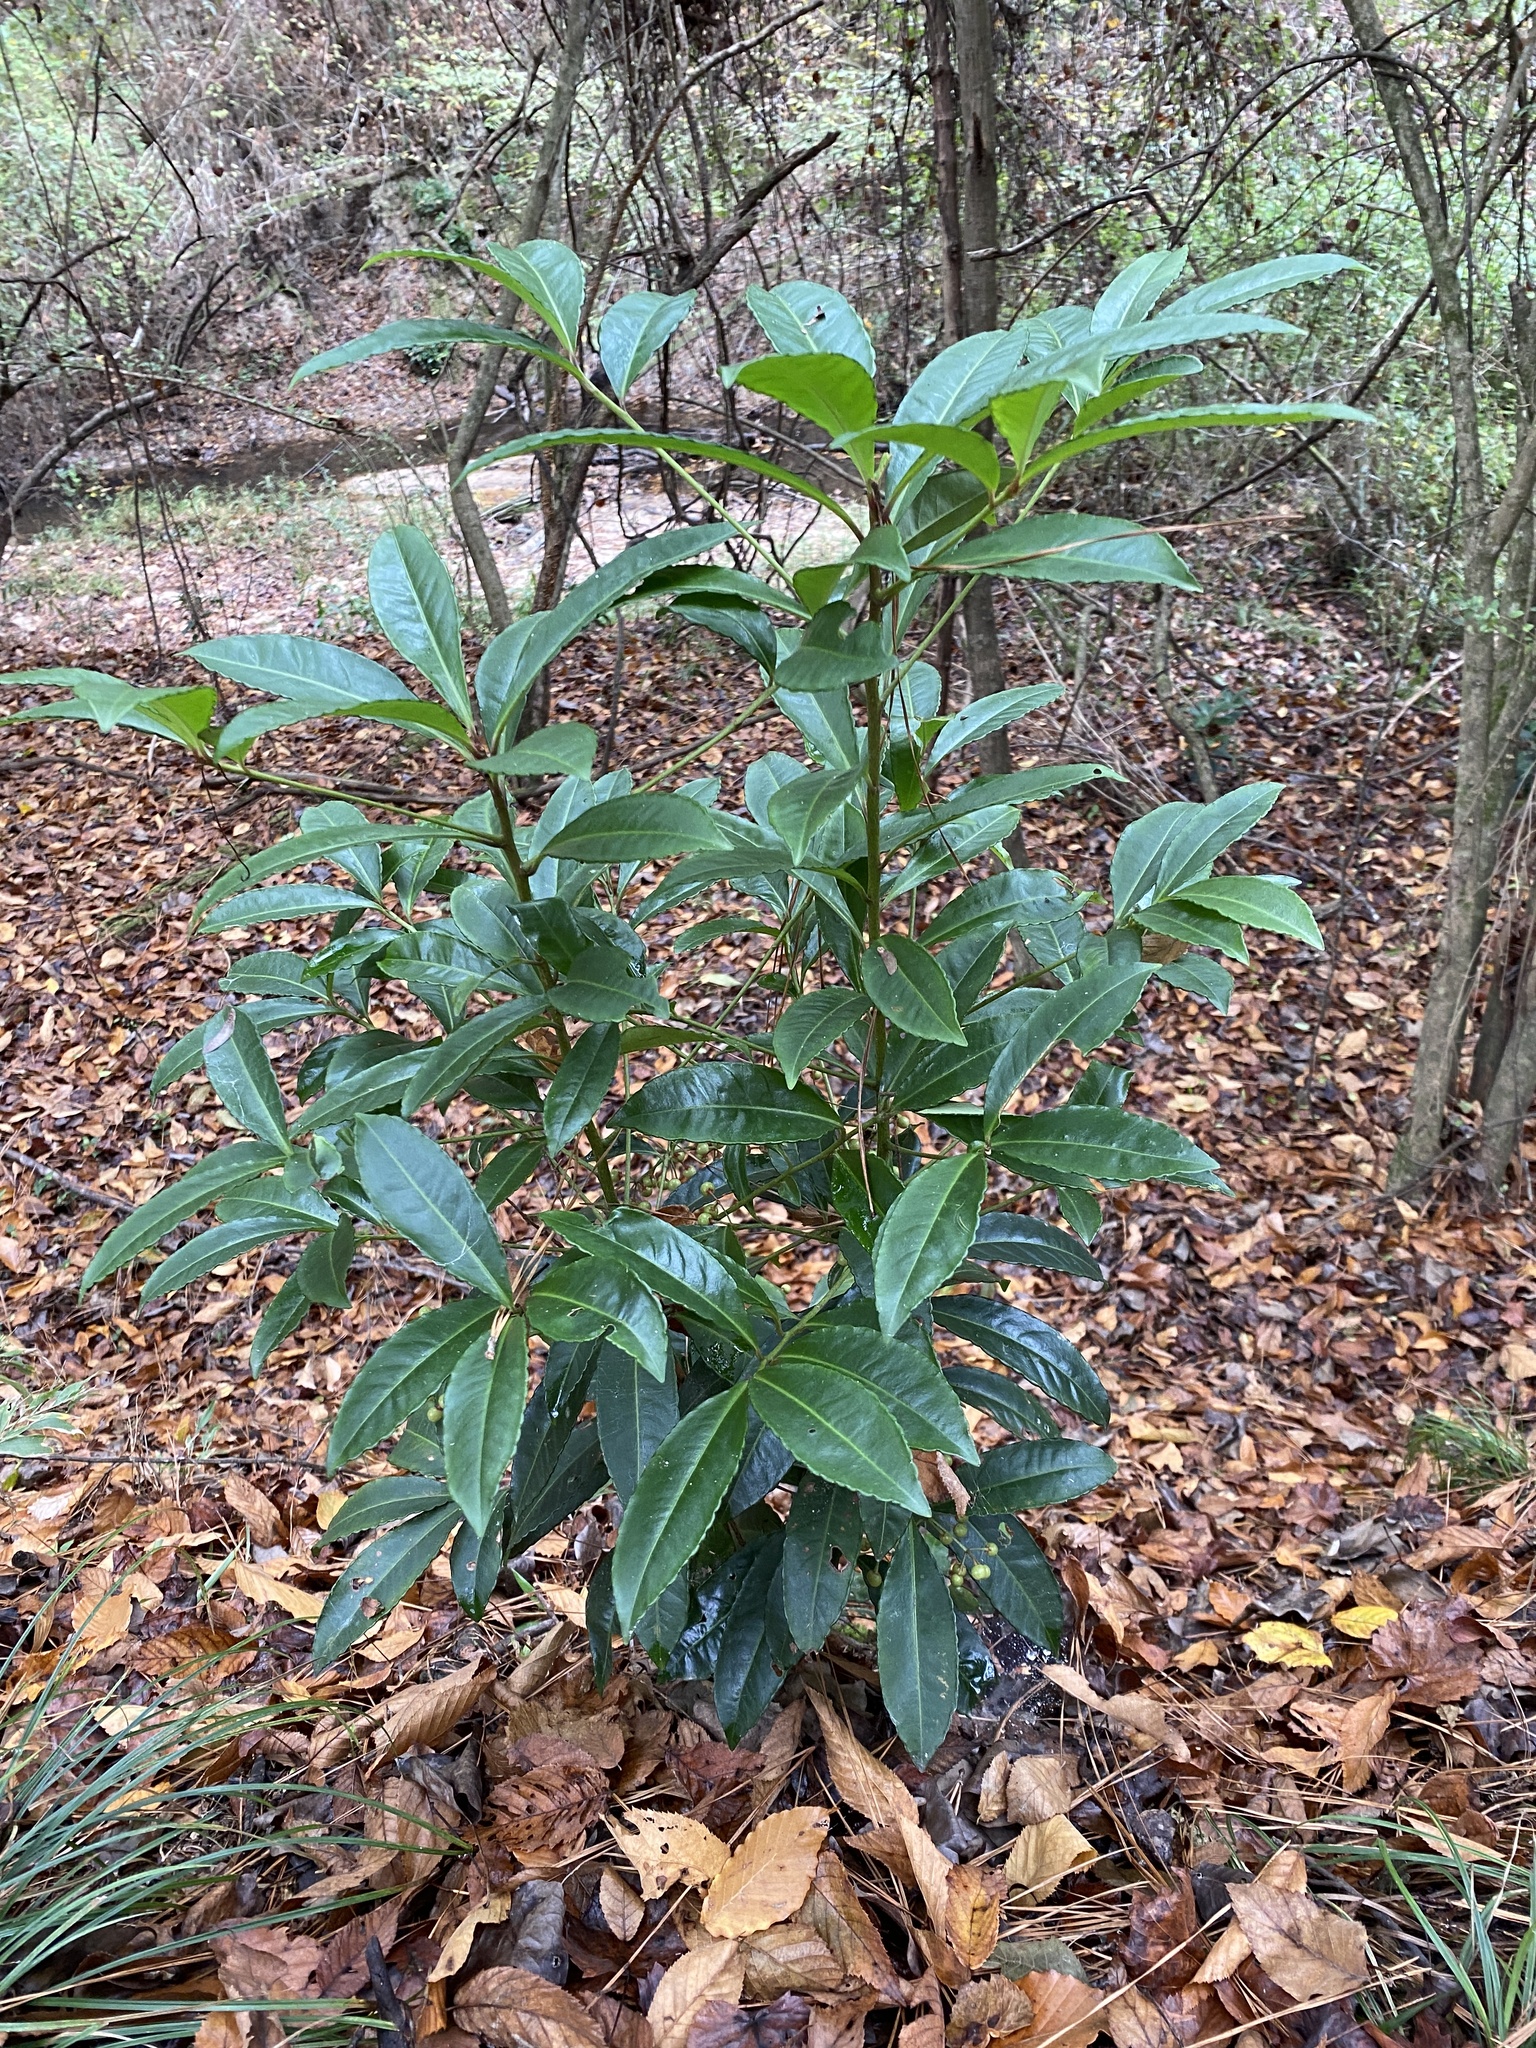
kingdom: Plantae
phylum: Tracheophyta
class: Magnoliopsida
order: Ericales
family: Primulaceae
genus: Ardisia
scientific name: Ardisia crenata
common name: Hen's eyes
